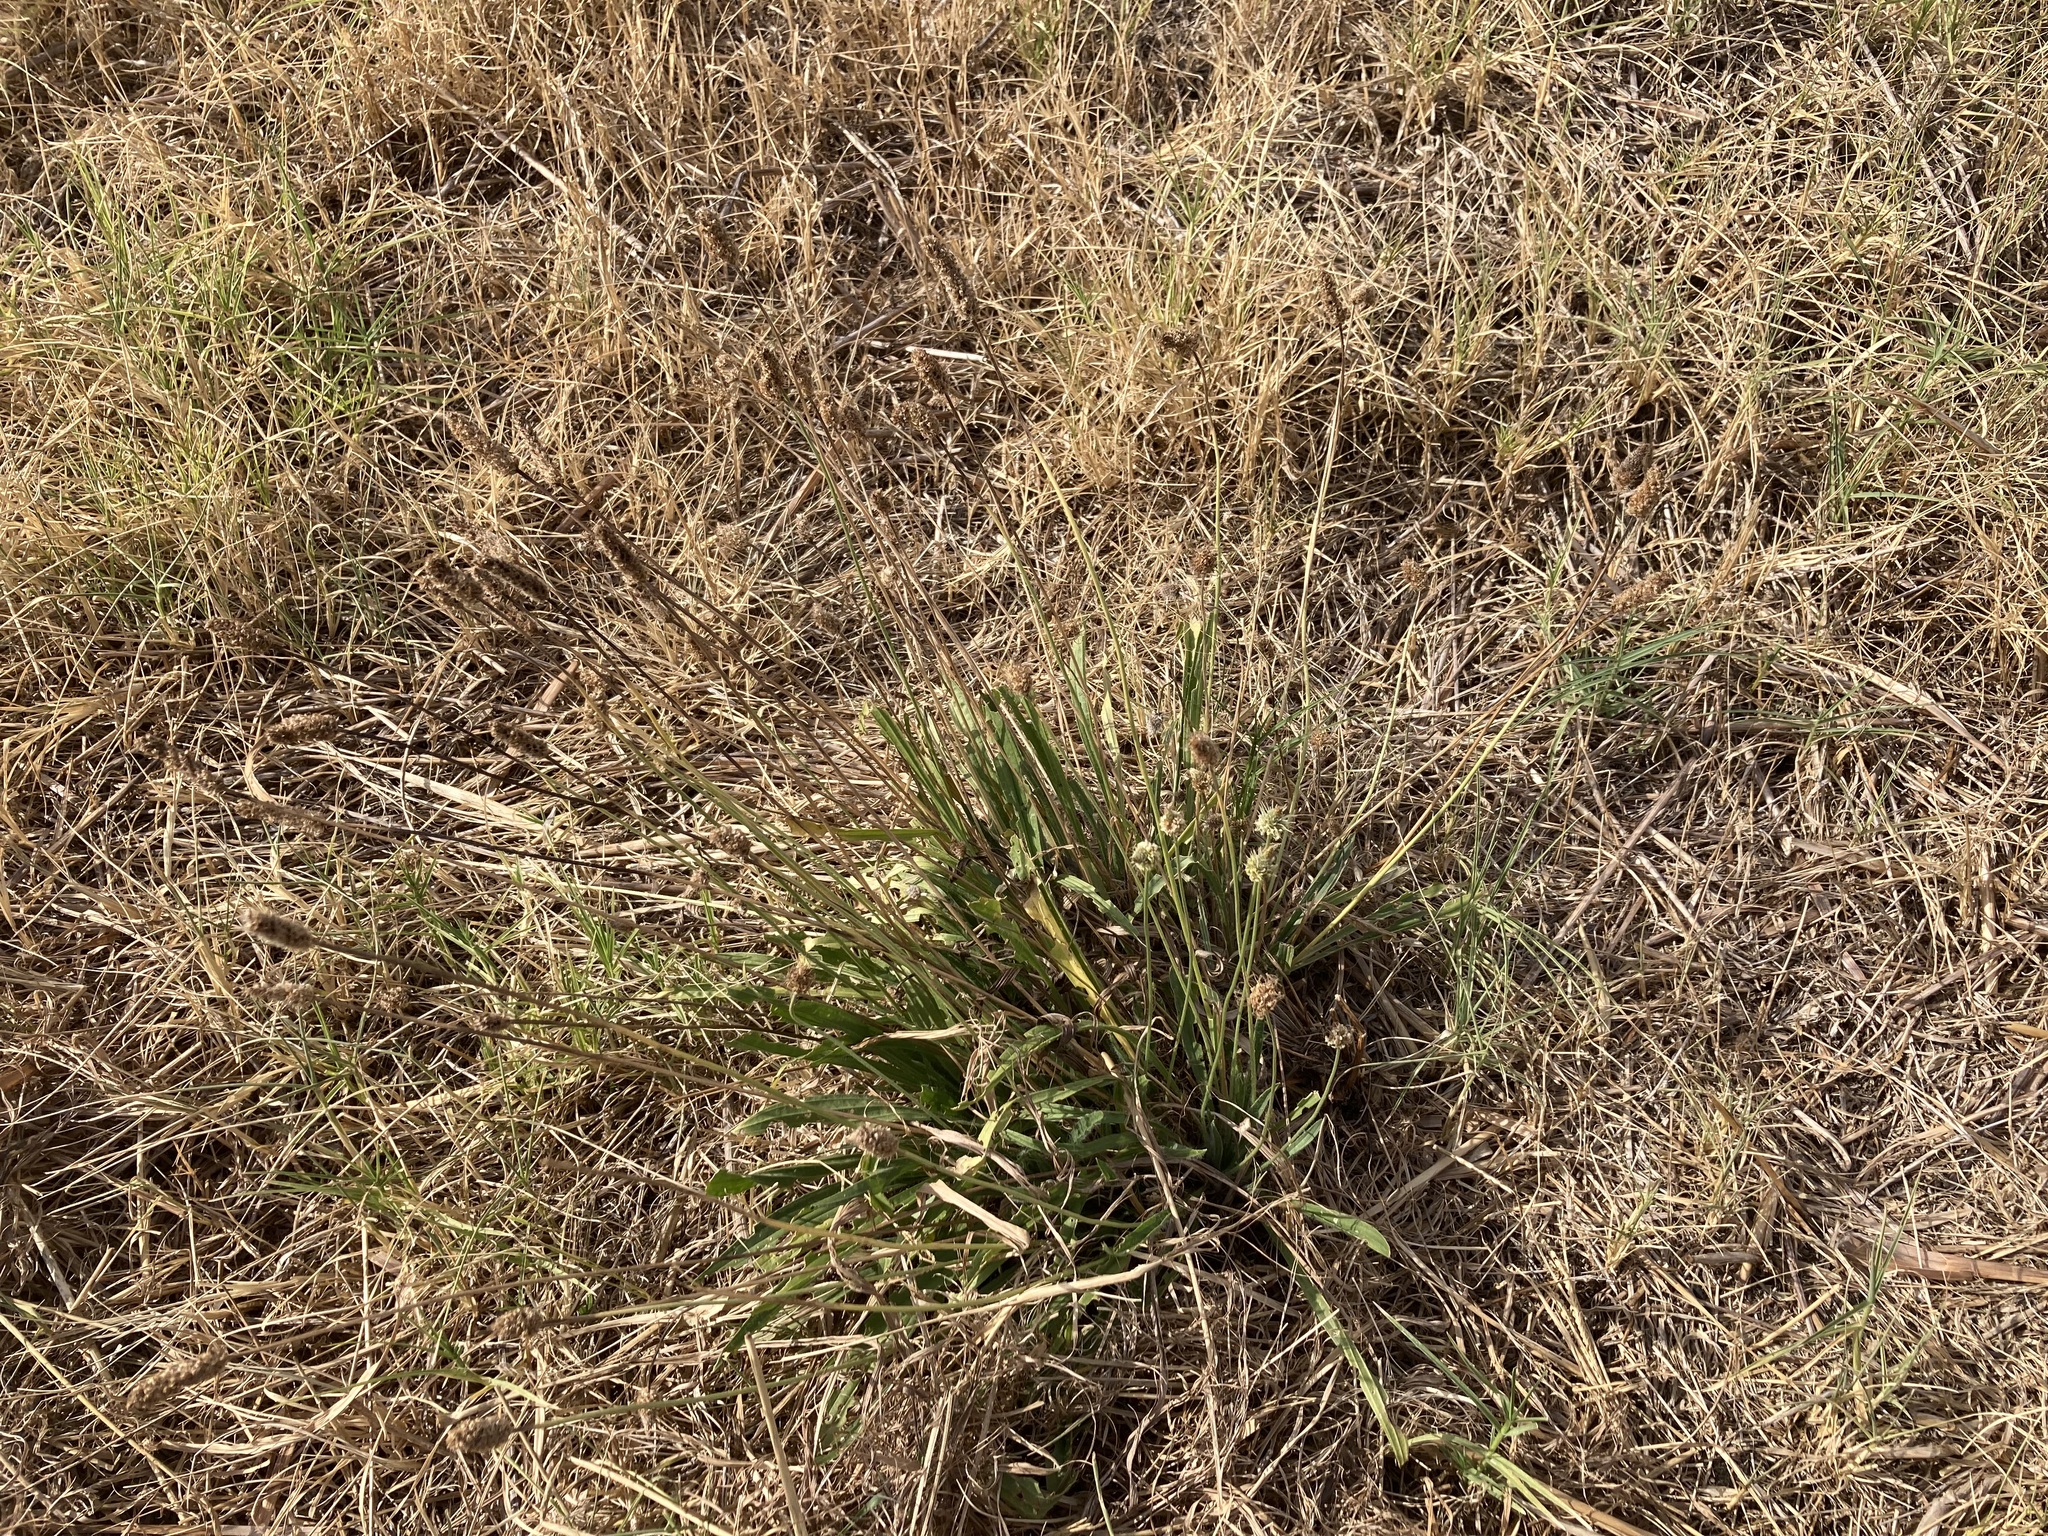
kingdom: Plantae
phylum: Tracheophyta
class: Magnoliopsida
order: Lamiales
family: Plantaginaceae
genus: Plantago
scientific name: Plantago lanceolata
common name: Ribwort plantain
